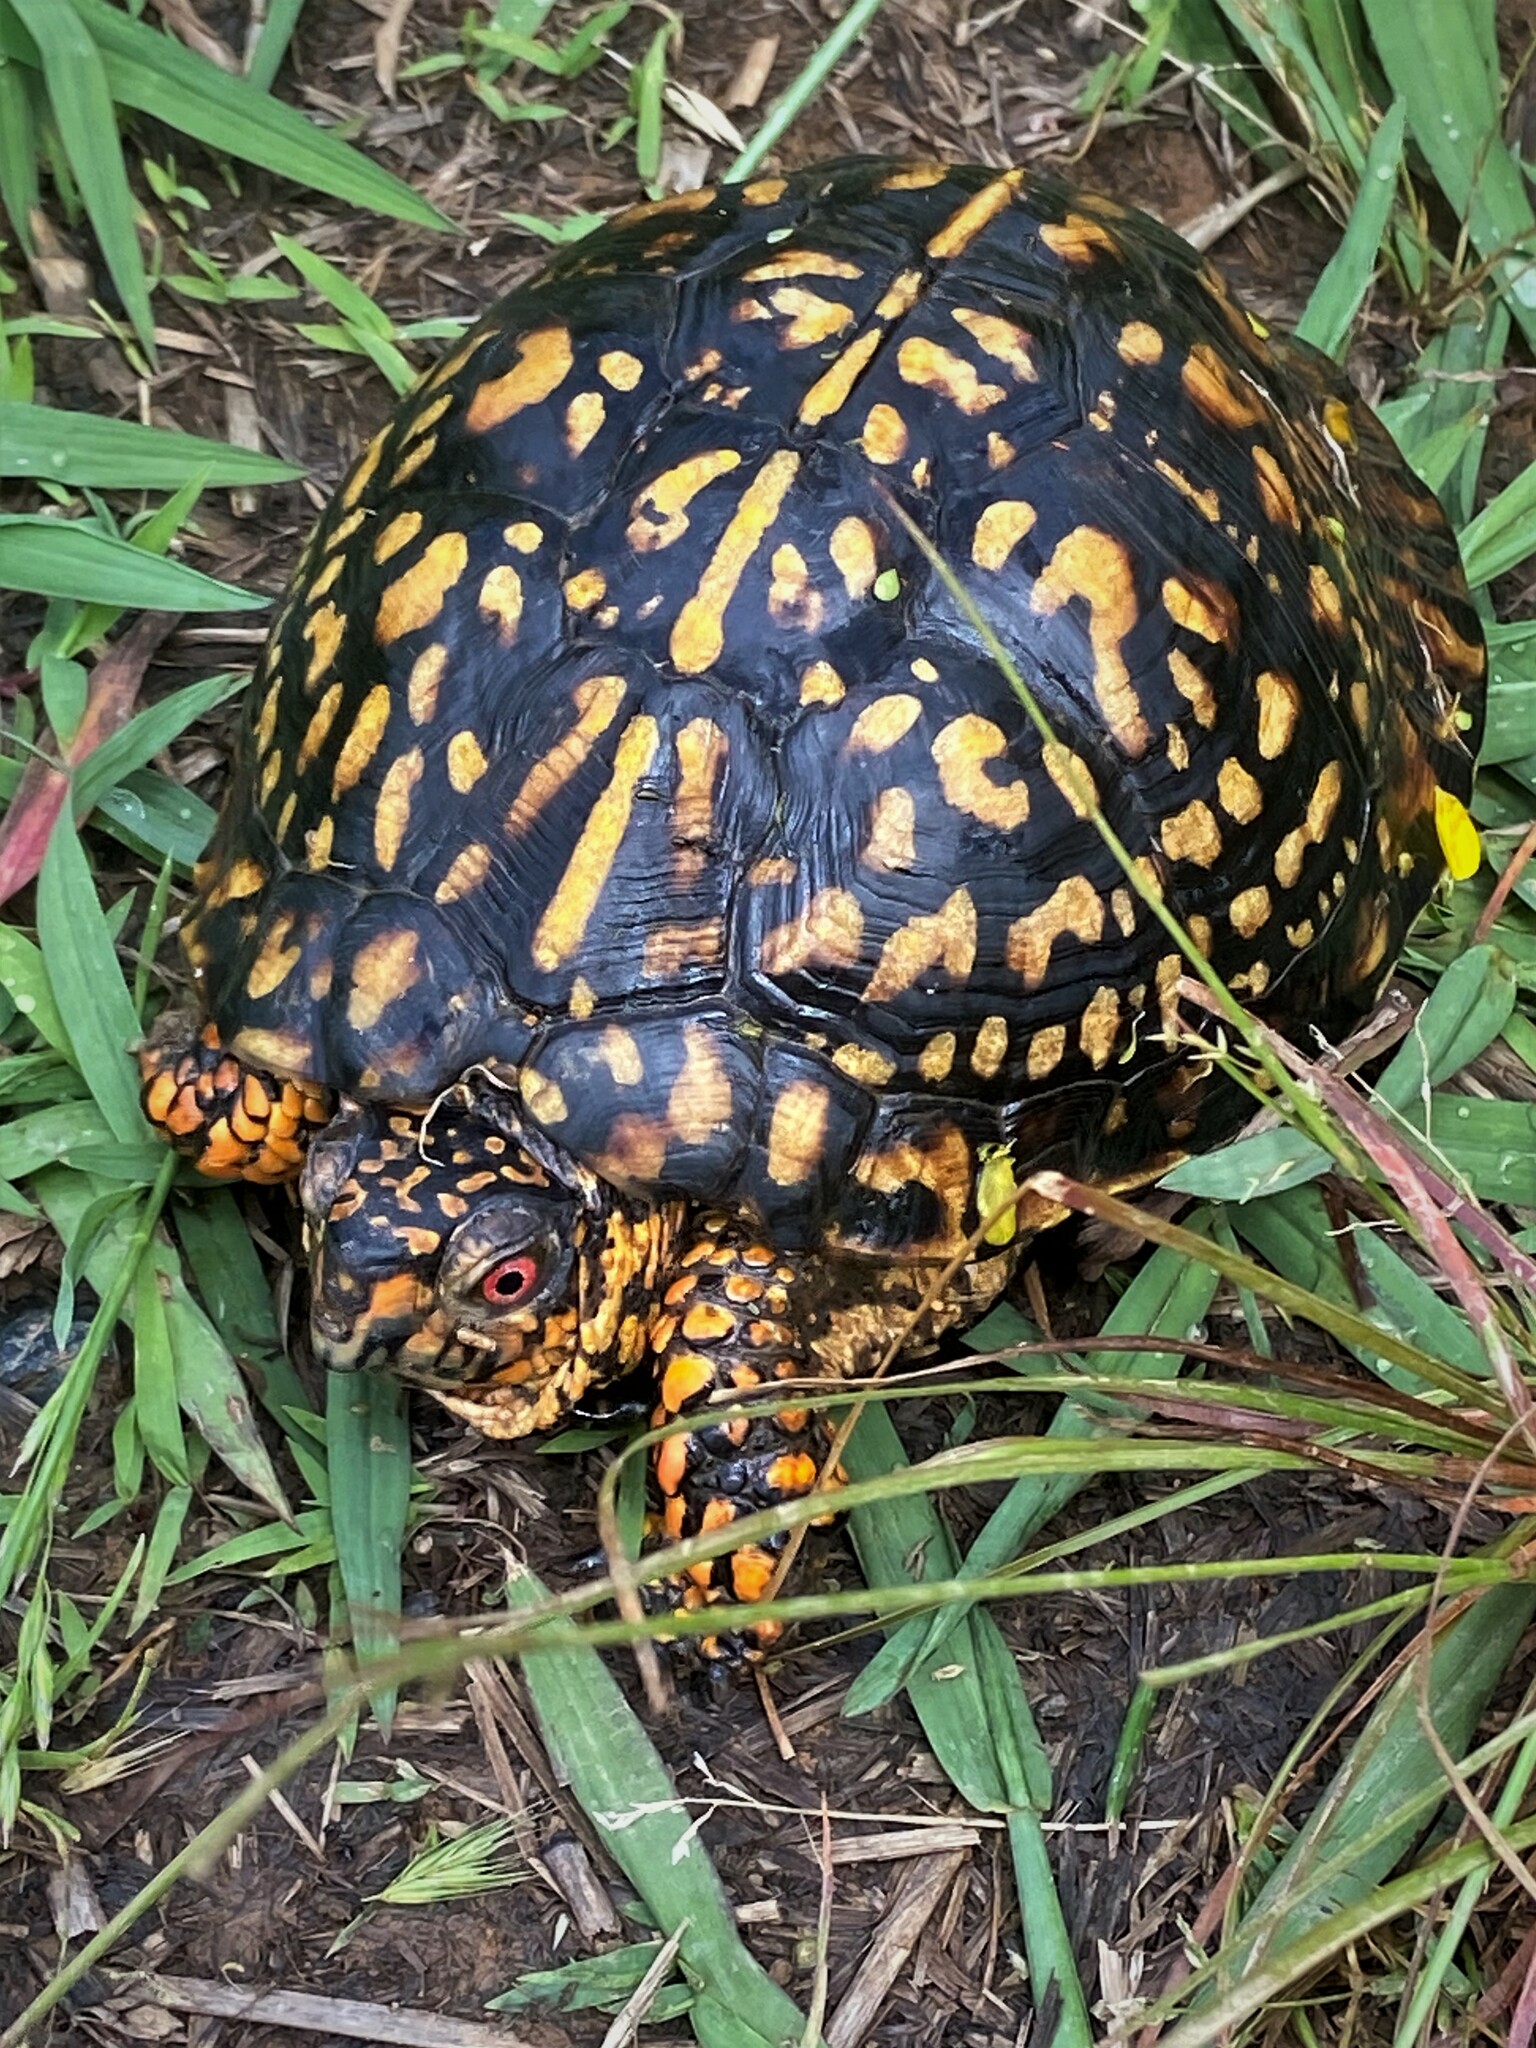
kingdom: Animalia
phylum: Chordata
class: Testudines
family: Emydidae
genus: Terrapene
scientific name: Terrapene carolina
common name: Common box turtle
